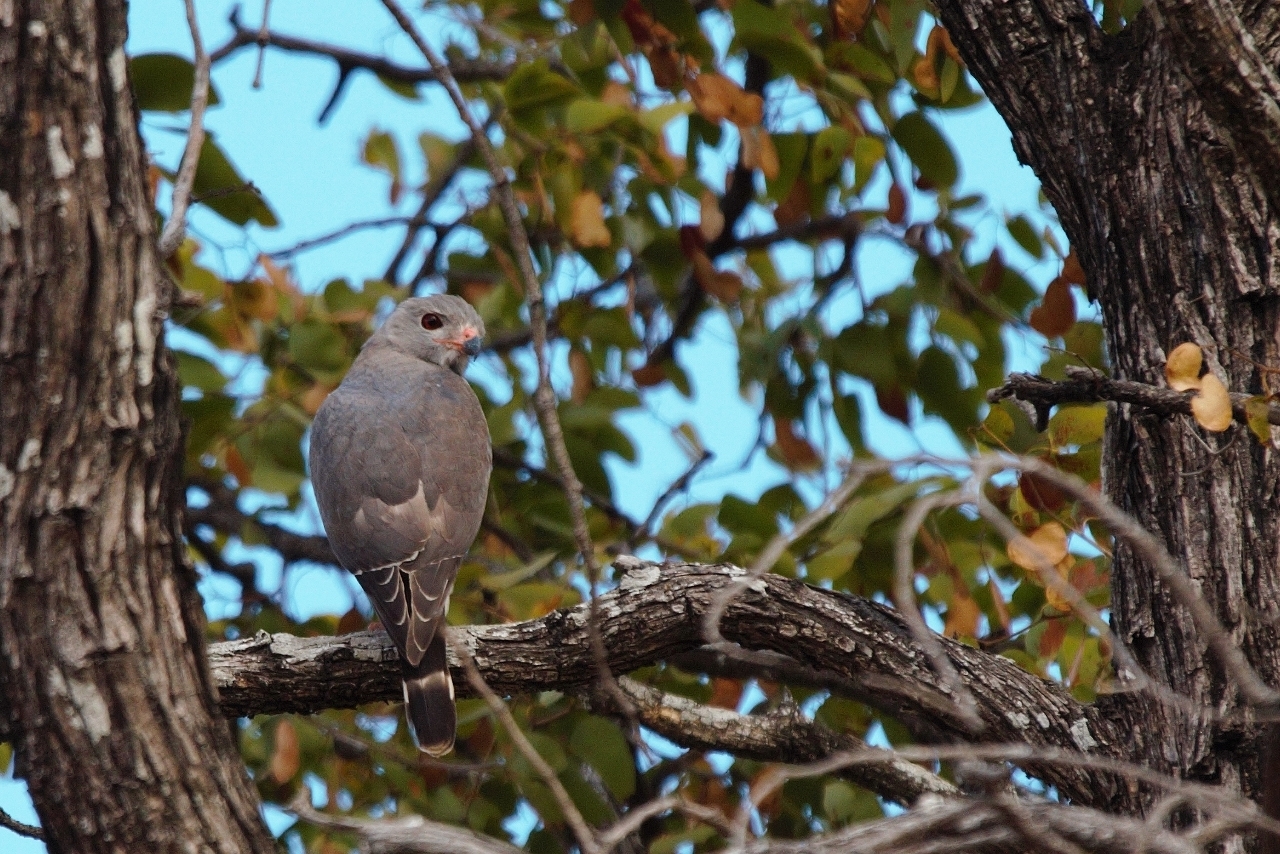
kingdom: Animalia
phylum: Chordata
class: Aves
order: Accipitriformes
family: Accipitridae
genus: Kaupifalco
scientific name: Kaupifalco monogrammicus
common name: Lizard buzzard
